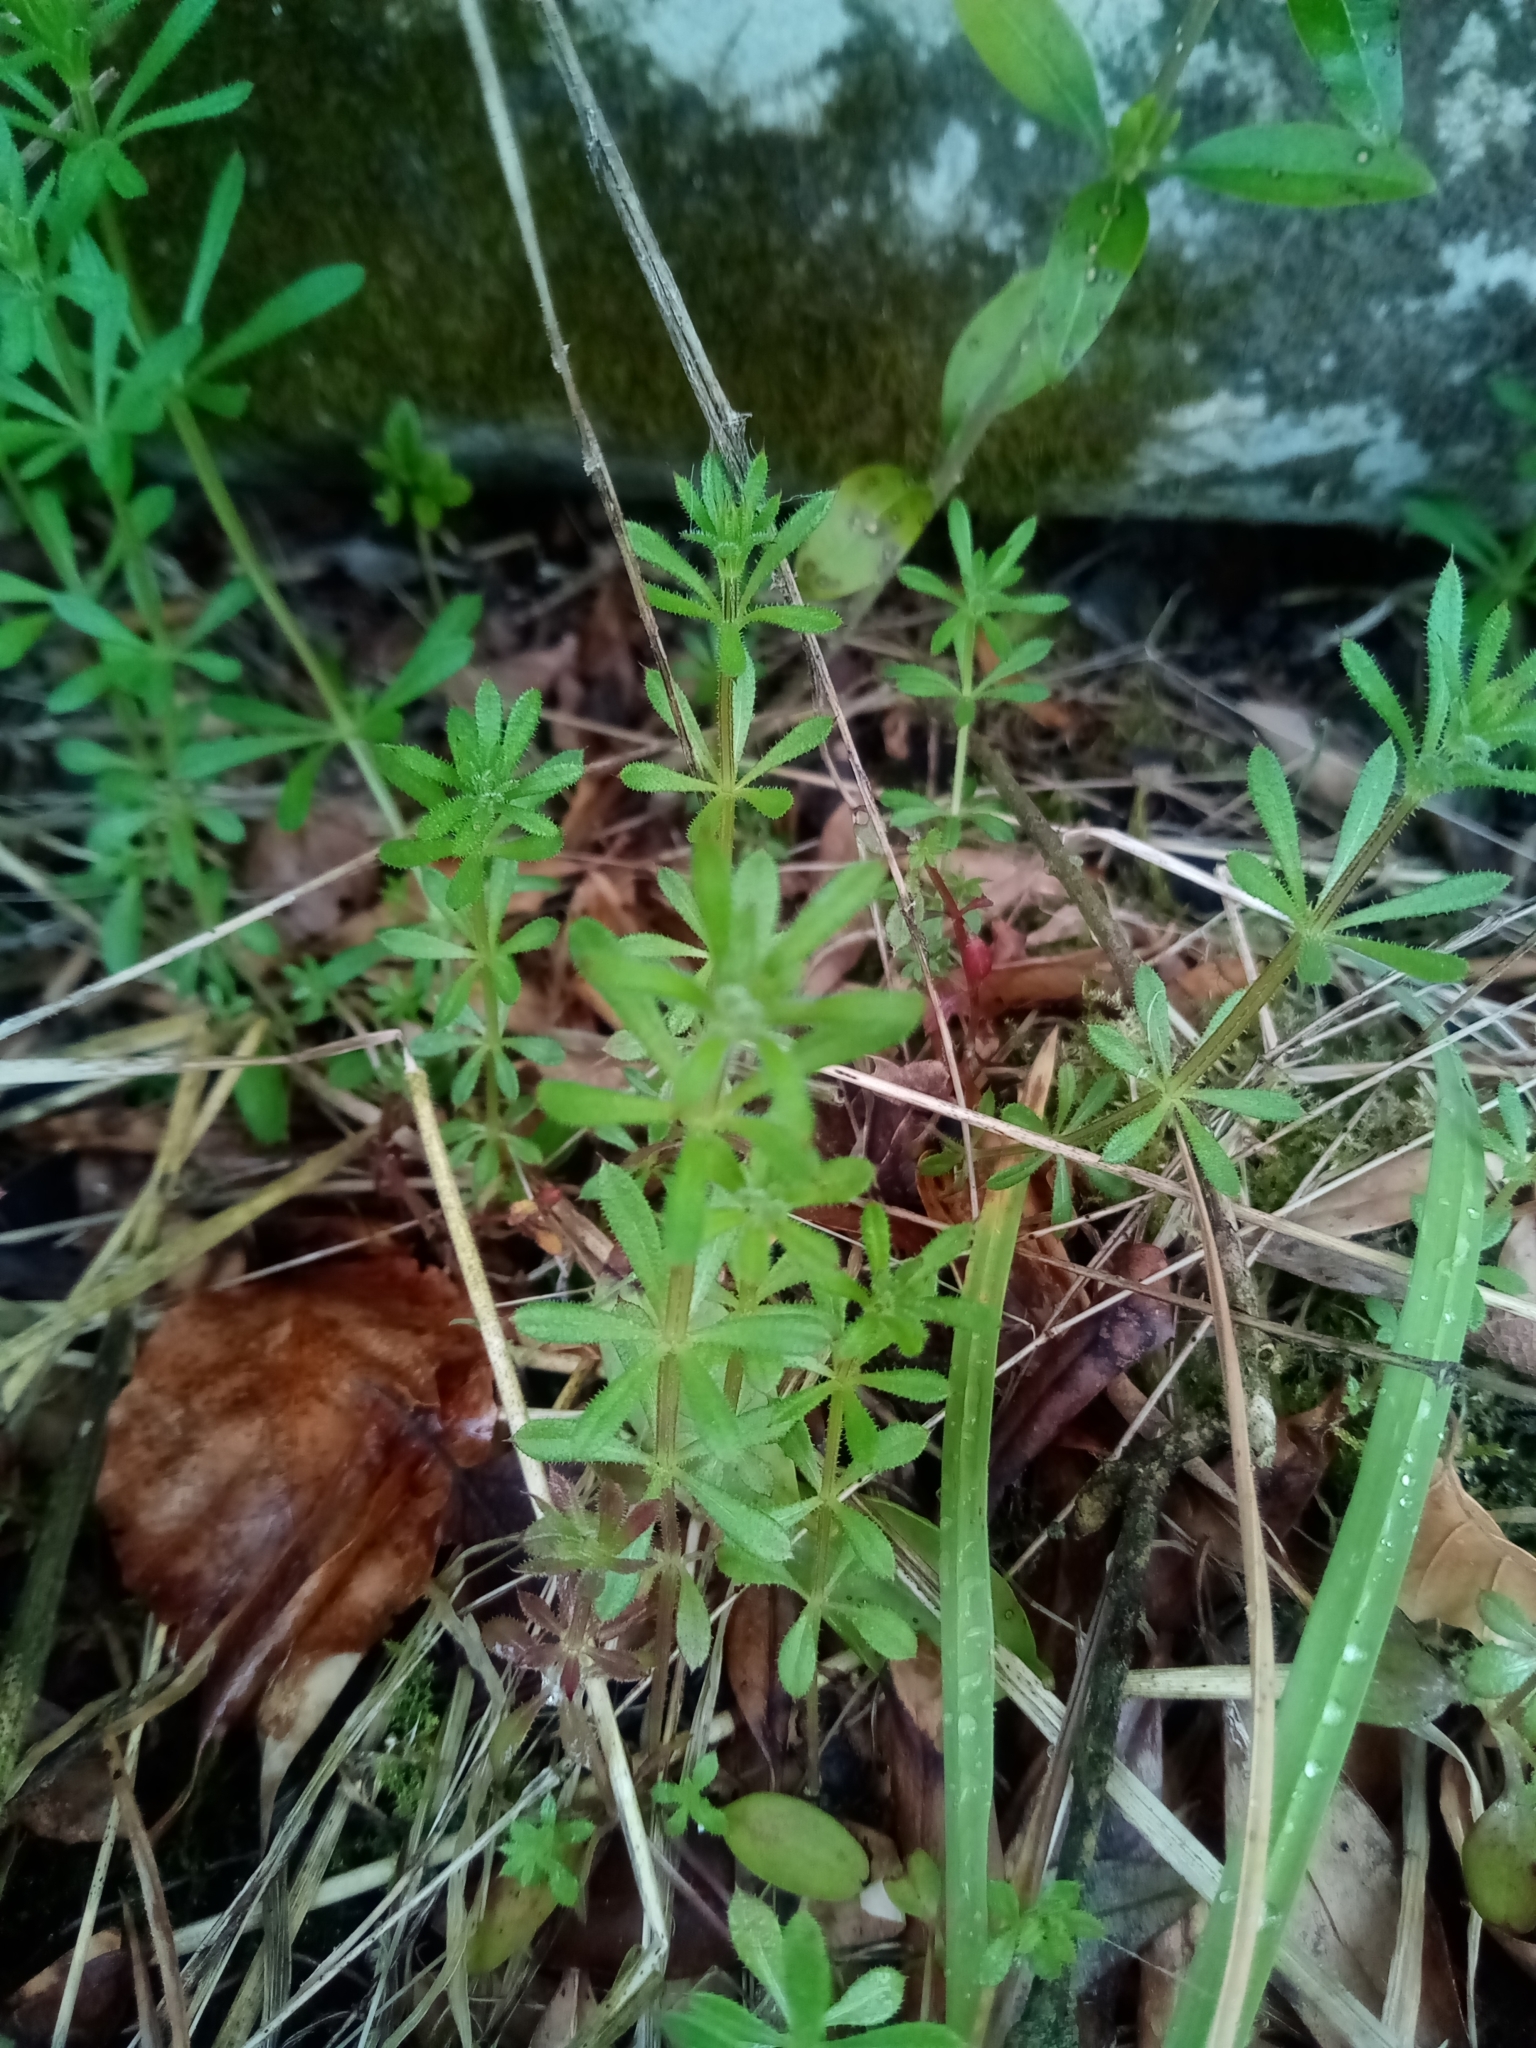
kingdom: Plantae
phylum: Tracheophyta
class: Magnoliopsida
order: Gentianales
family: Rubiaceae
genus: Galium
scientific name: Galium aparine
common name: Cleavers
